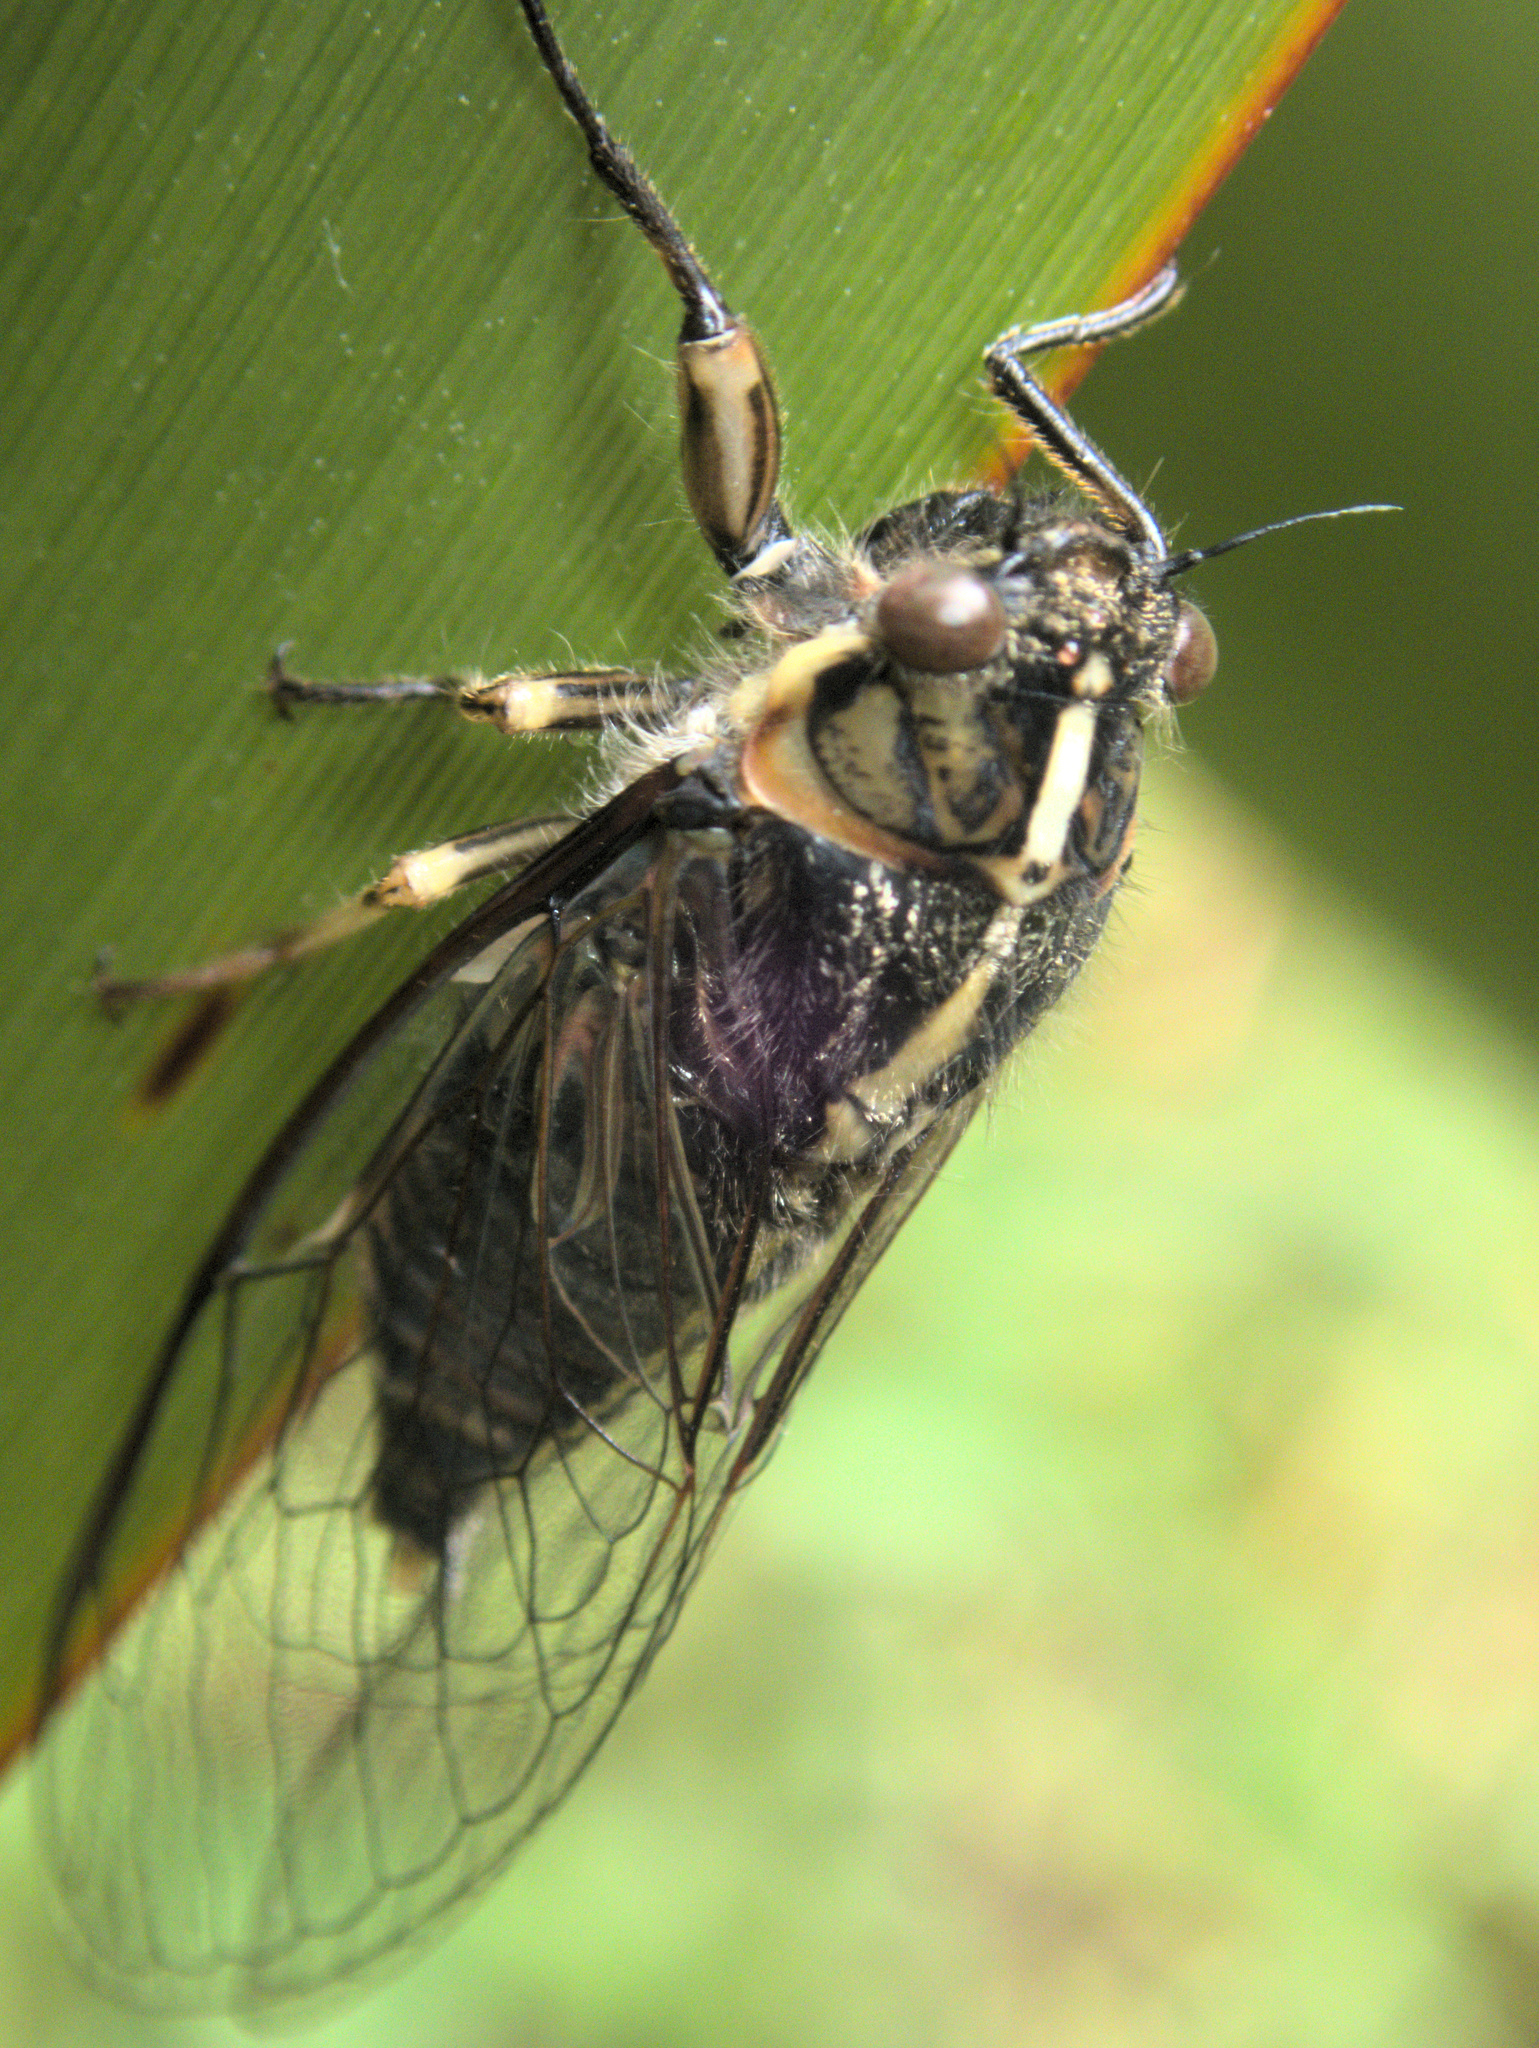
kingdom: Animalia
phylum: Arthropoda
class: Insecta
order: Hemiptera
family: Cicadidae
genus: Kikihia
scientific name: Kikihia longula
